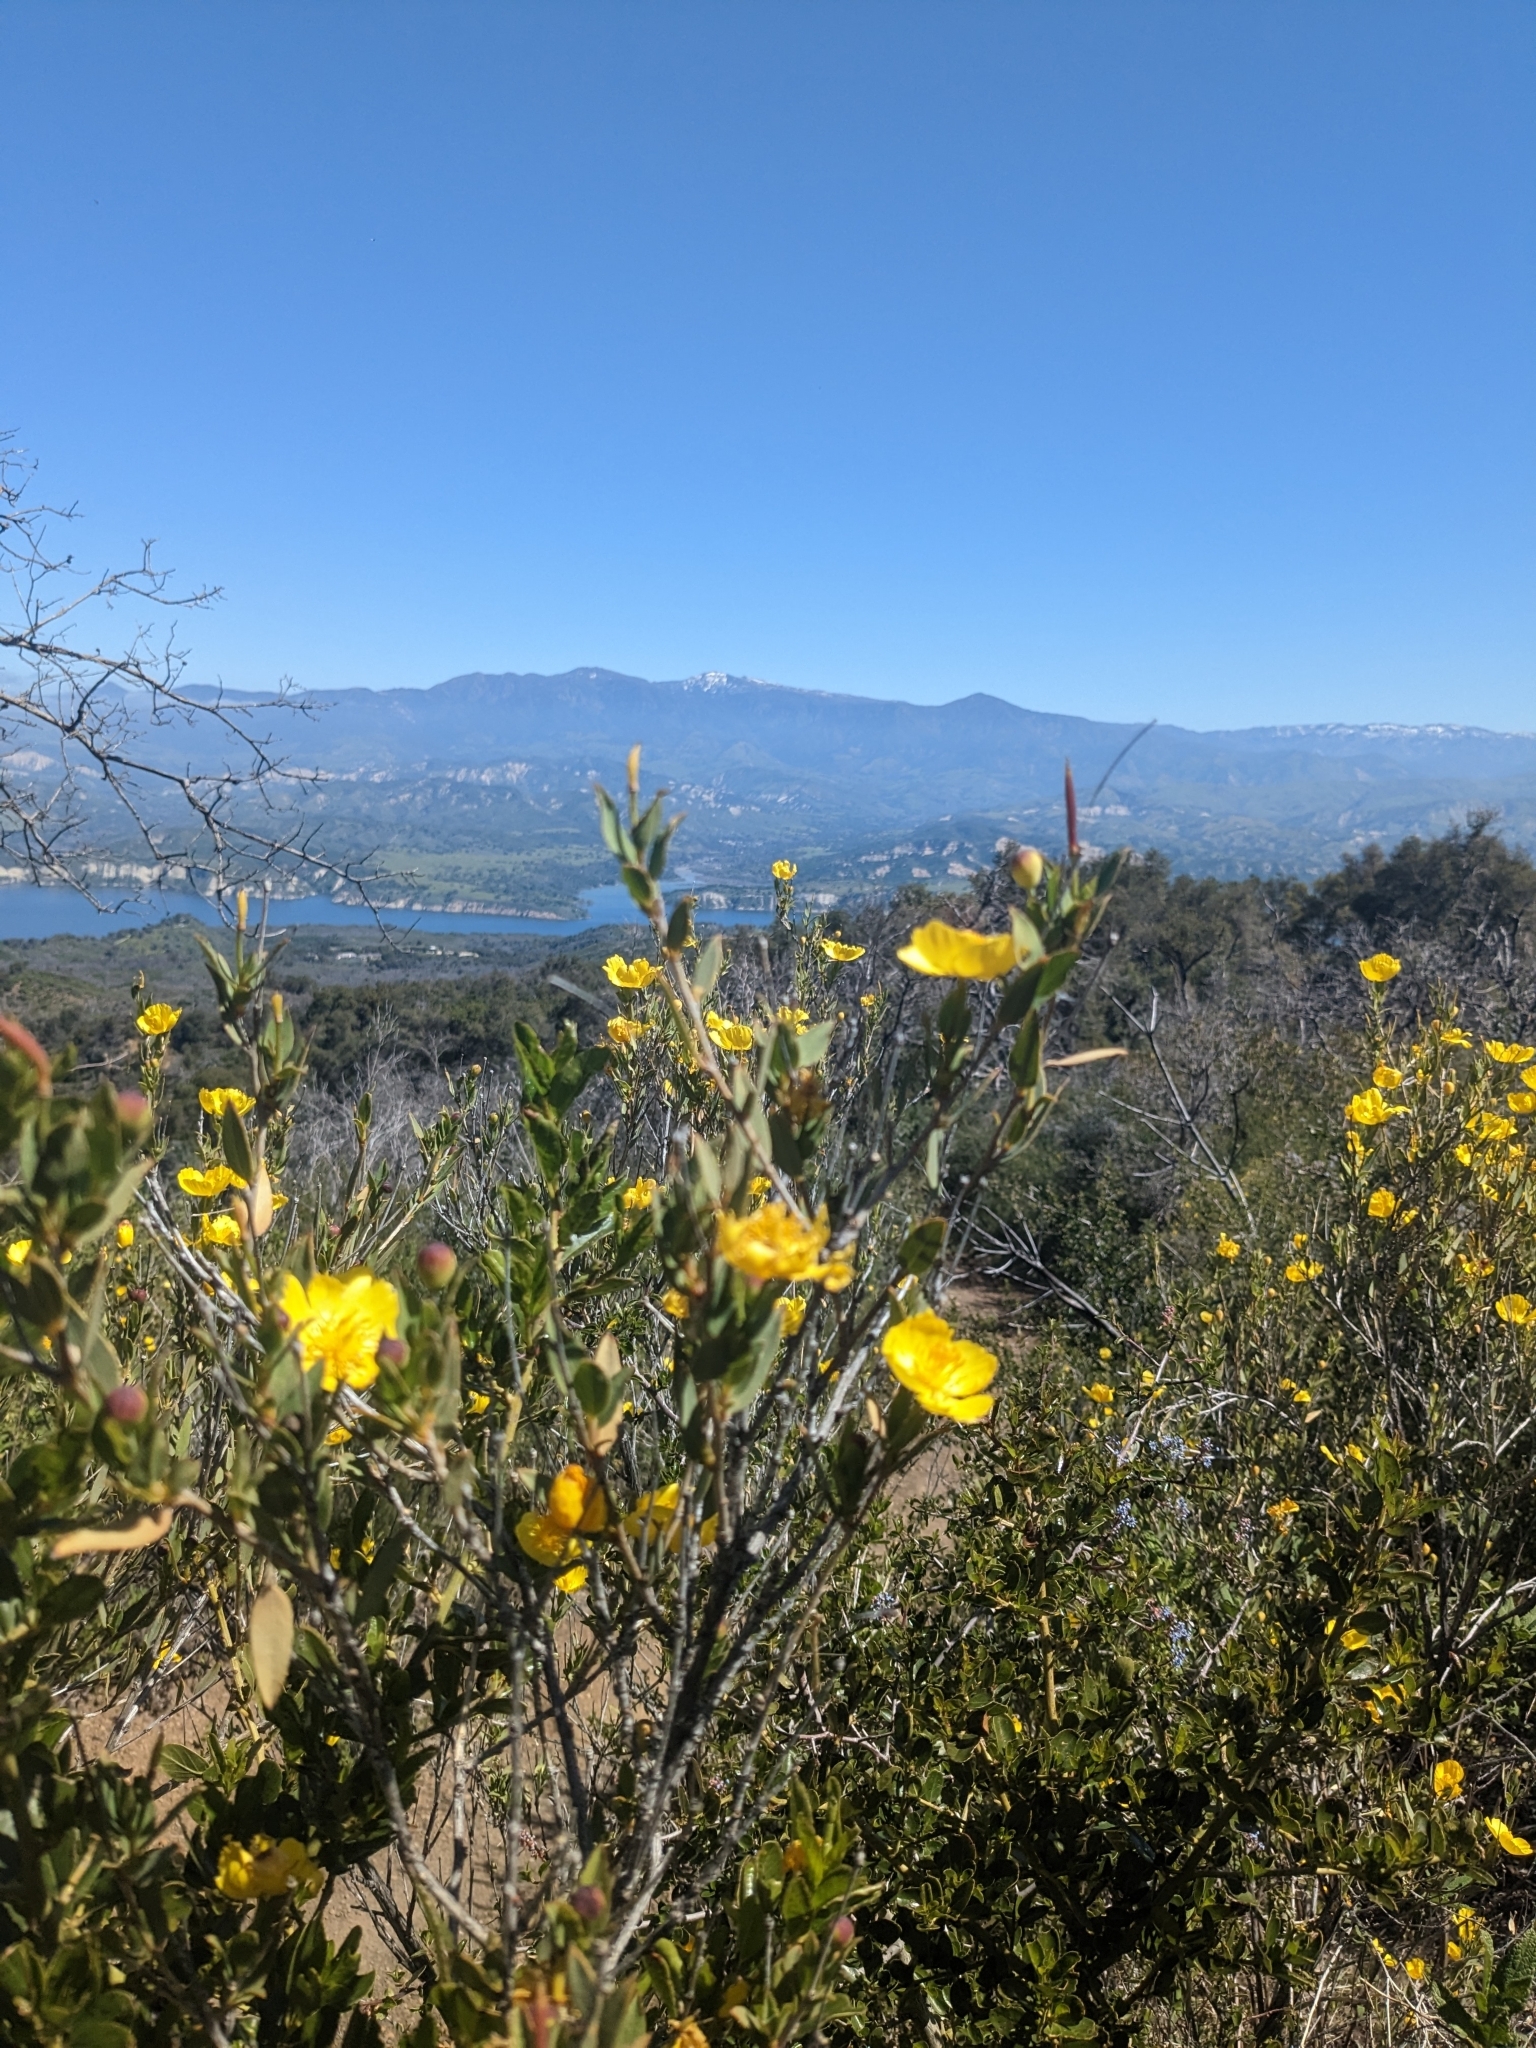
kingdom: Plantae
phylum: Tracheophyta
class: Magnoliopsida
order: Ranunculales
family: Papaveraceae
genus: Dendromecon
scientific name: Dendromecon rigida
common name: Tree poppy
